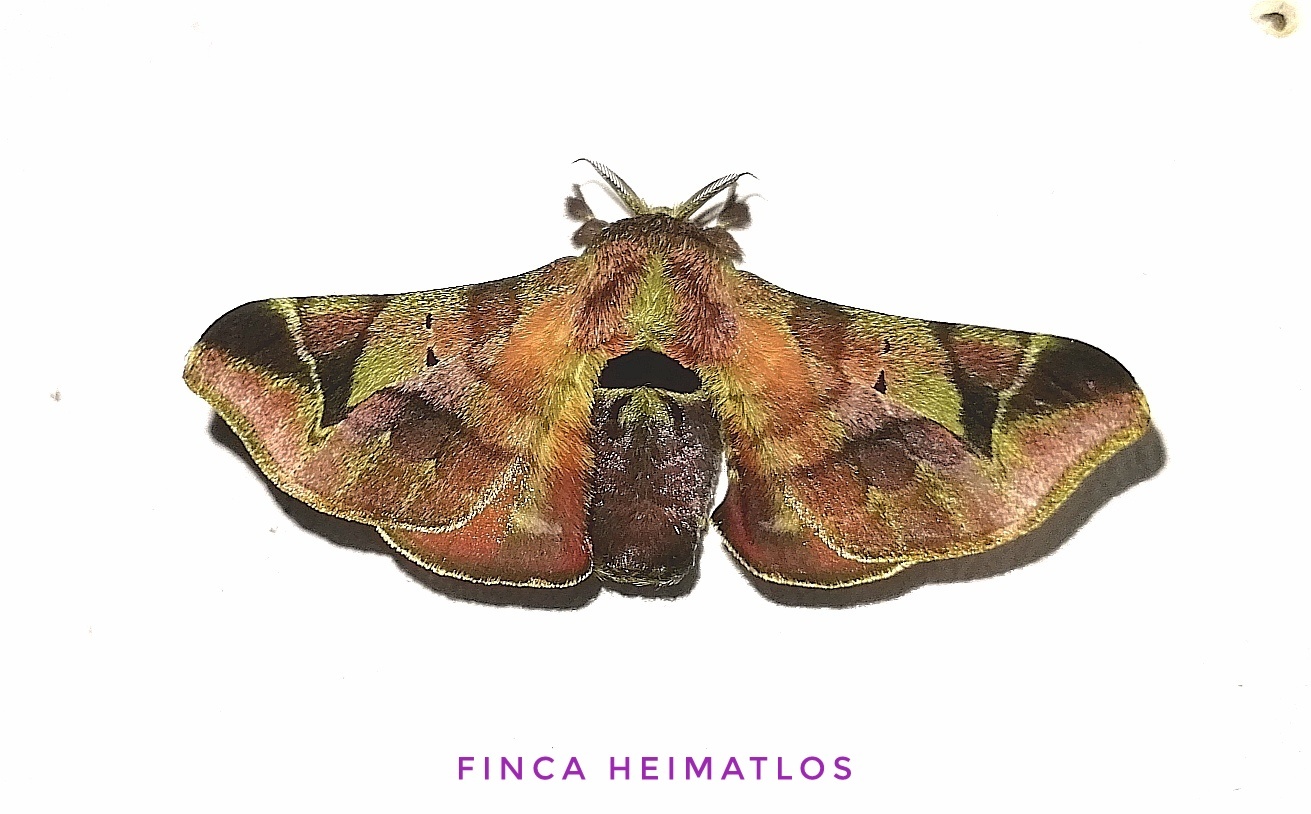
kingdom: Animalia
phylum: Arthropoda
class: Insecta
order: Lepidoptera
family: Bombycidae
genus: Quentalia
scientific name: Quentalia numalia
